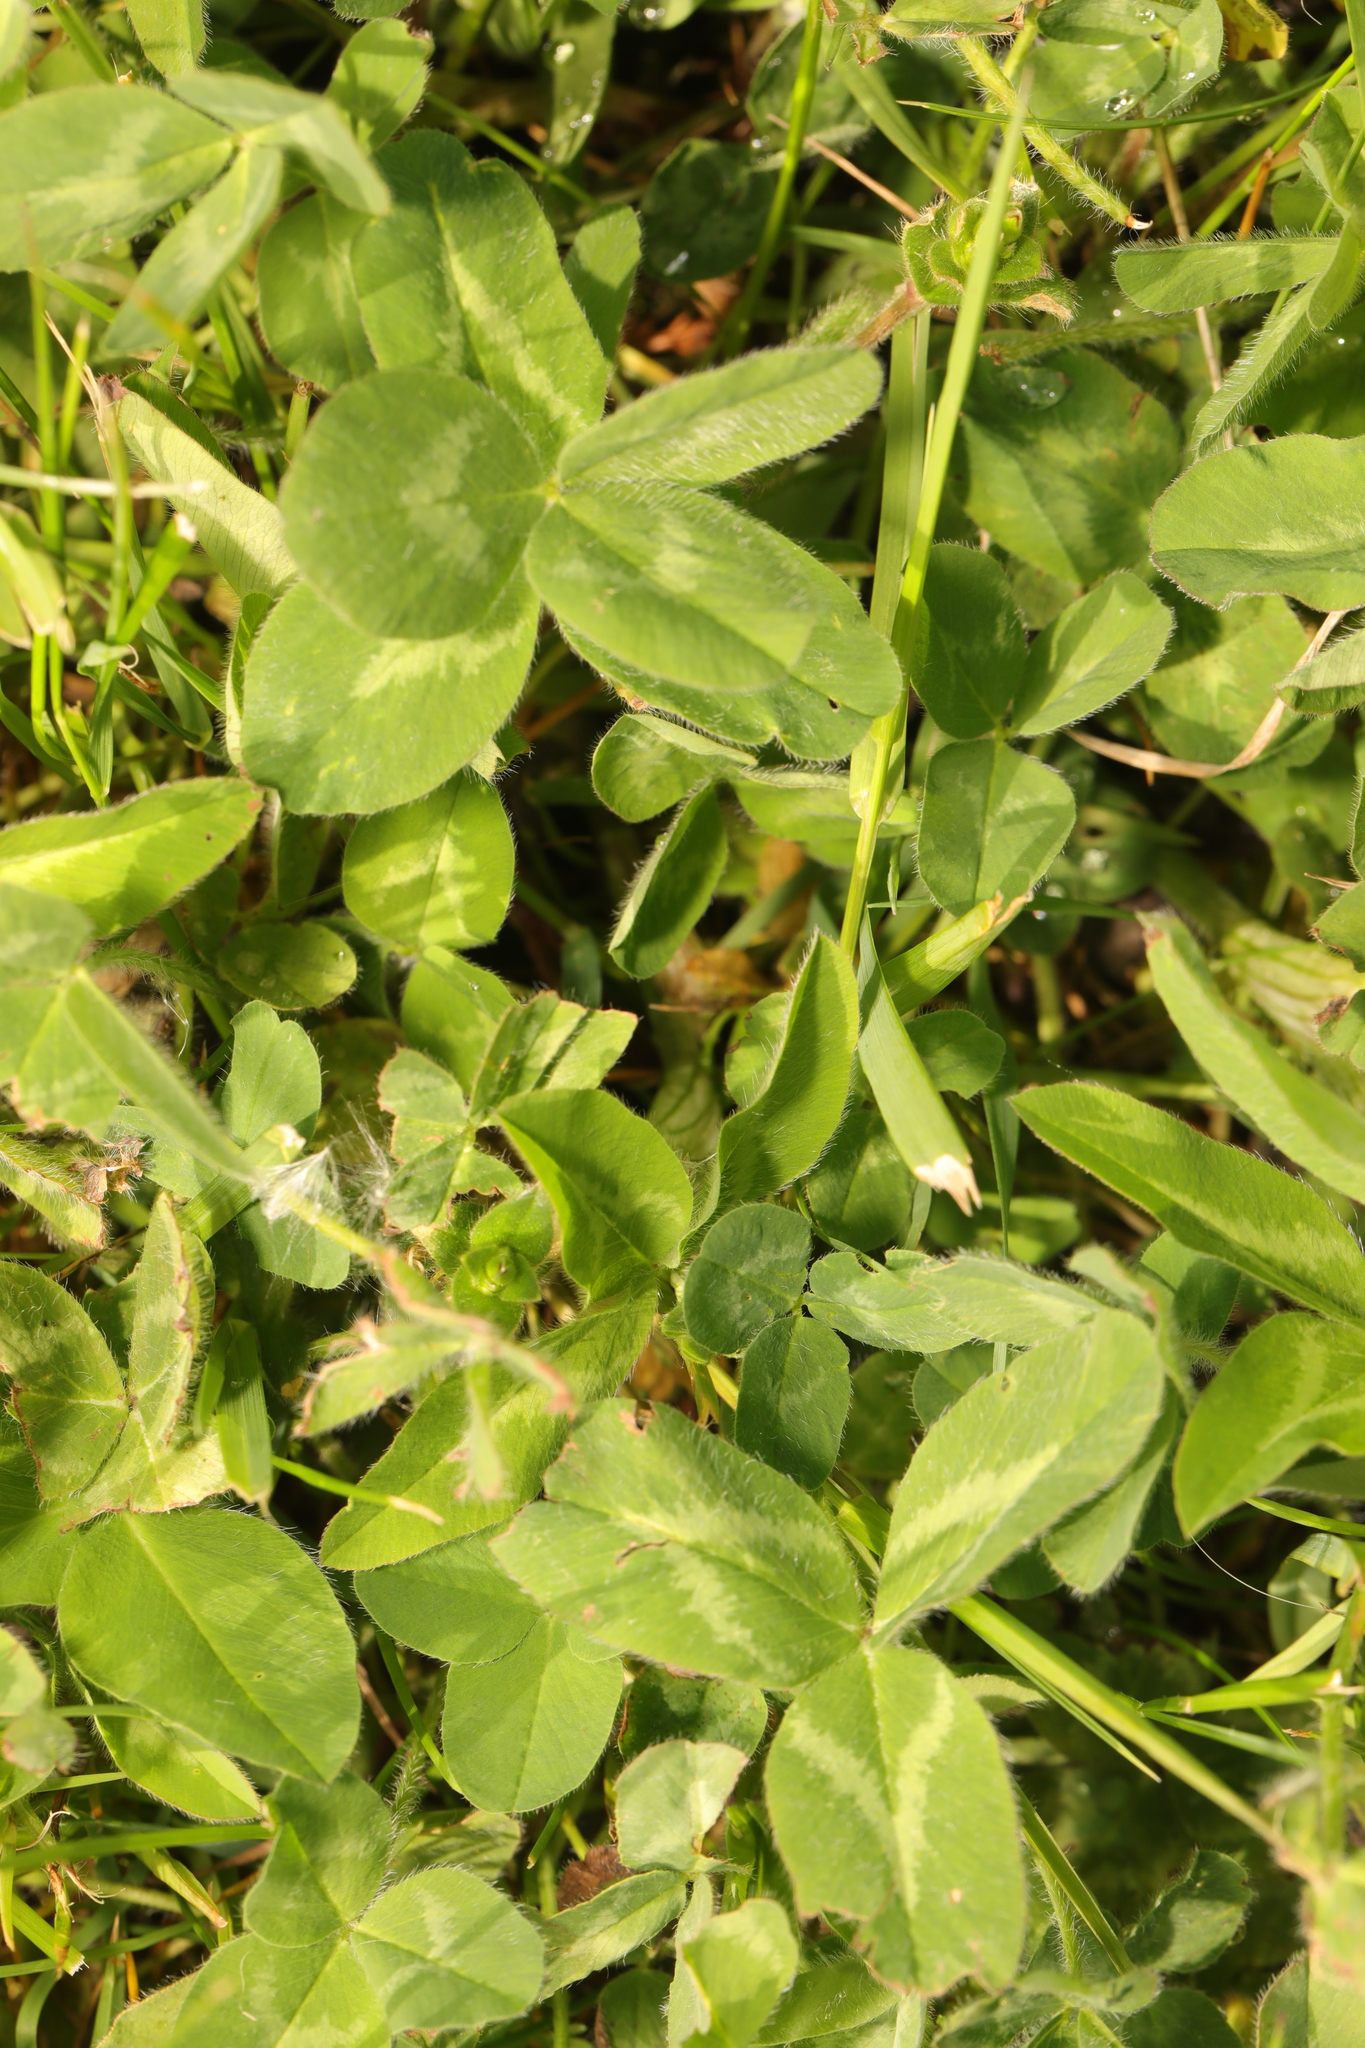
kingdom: Plantae
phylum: Tracheophyta
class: Magnoliopsida
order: Fabales
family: Fabaceae
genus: Trifolium
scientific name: Trifolium pratense
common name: Red clover
